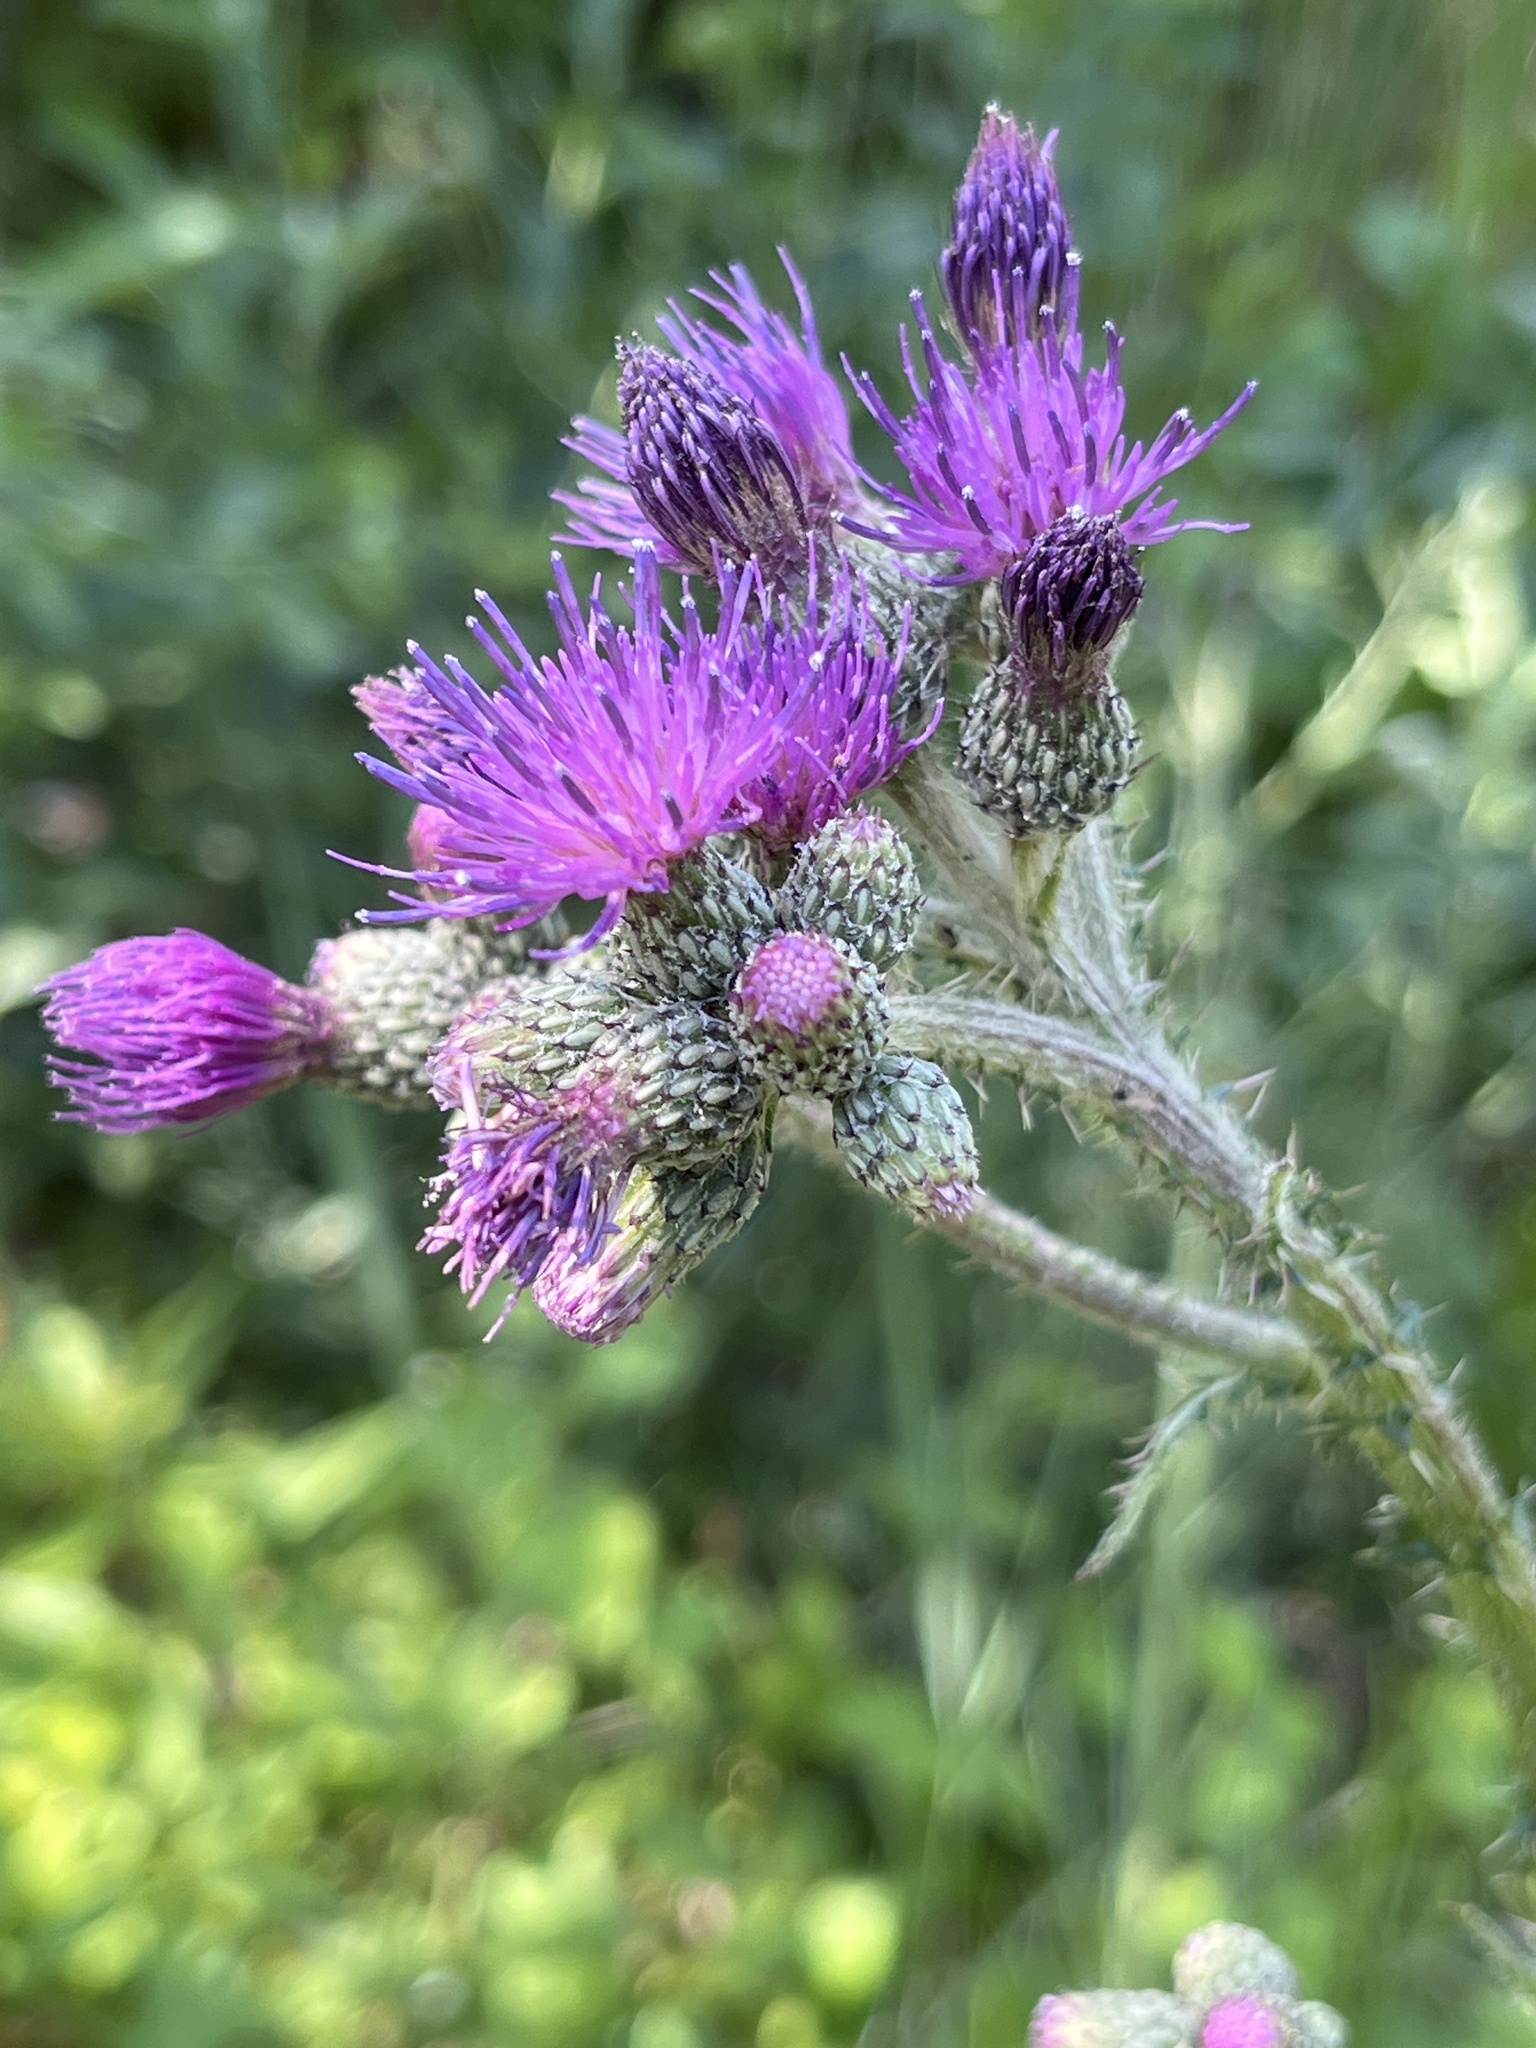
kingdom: Plantae
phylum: Tracheophyta
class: Magnoliopsida
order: Asterales
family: Asteraceae
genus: Cirsium
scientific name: Cirsium palustre
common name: Marsh thistle
